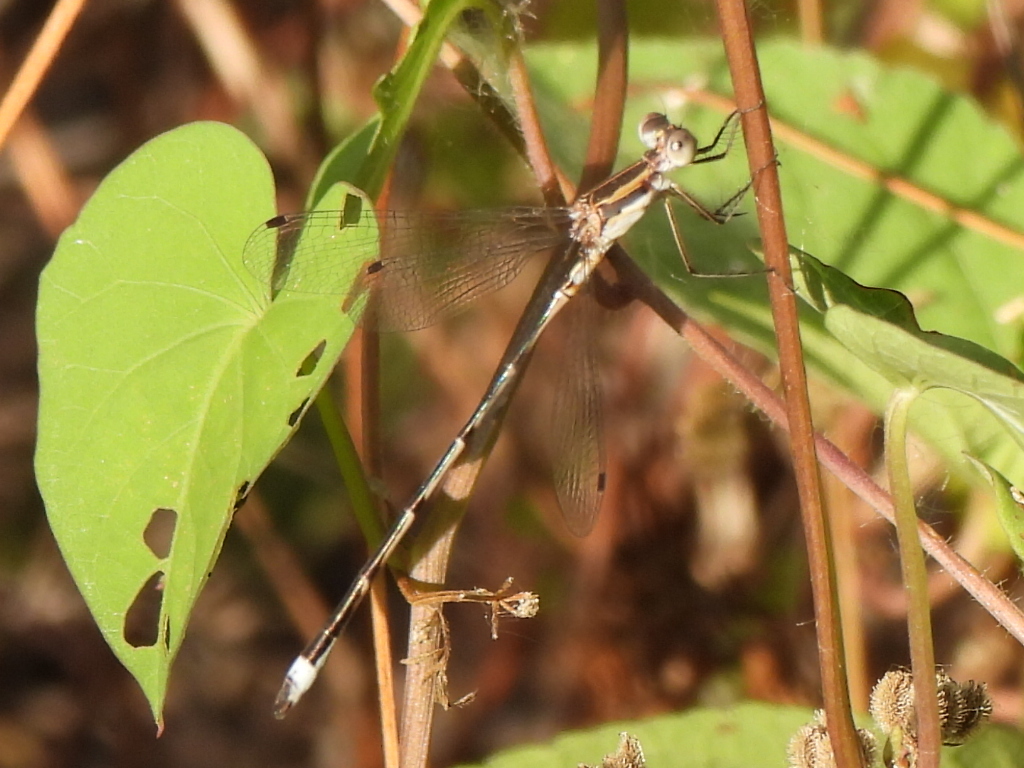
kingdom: Animalia
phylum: Arthropoda
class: Insecta
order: Odonata
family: Lestidae
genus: Lestes
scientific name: Lestes australis
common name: Southern spreadwing
